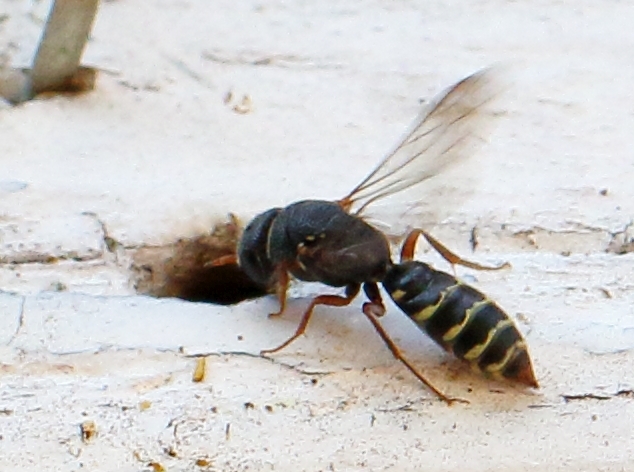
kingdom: Animalia
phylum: Arthropoda
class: Insecta
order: Hymenoptera
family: Sapygidae
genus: Sapygina
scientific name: Sapygina
